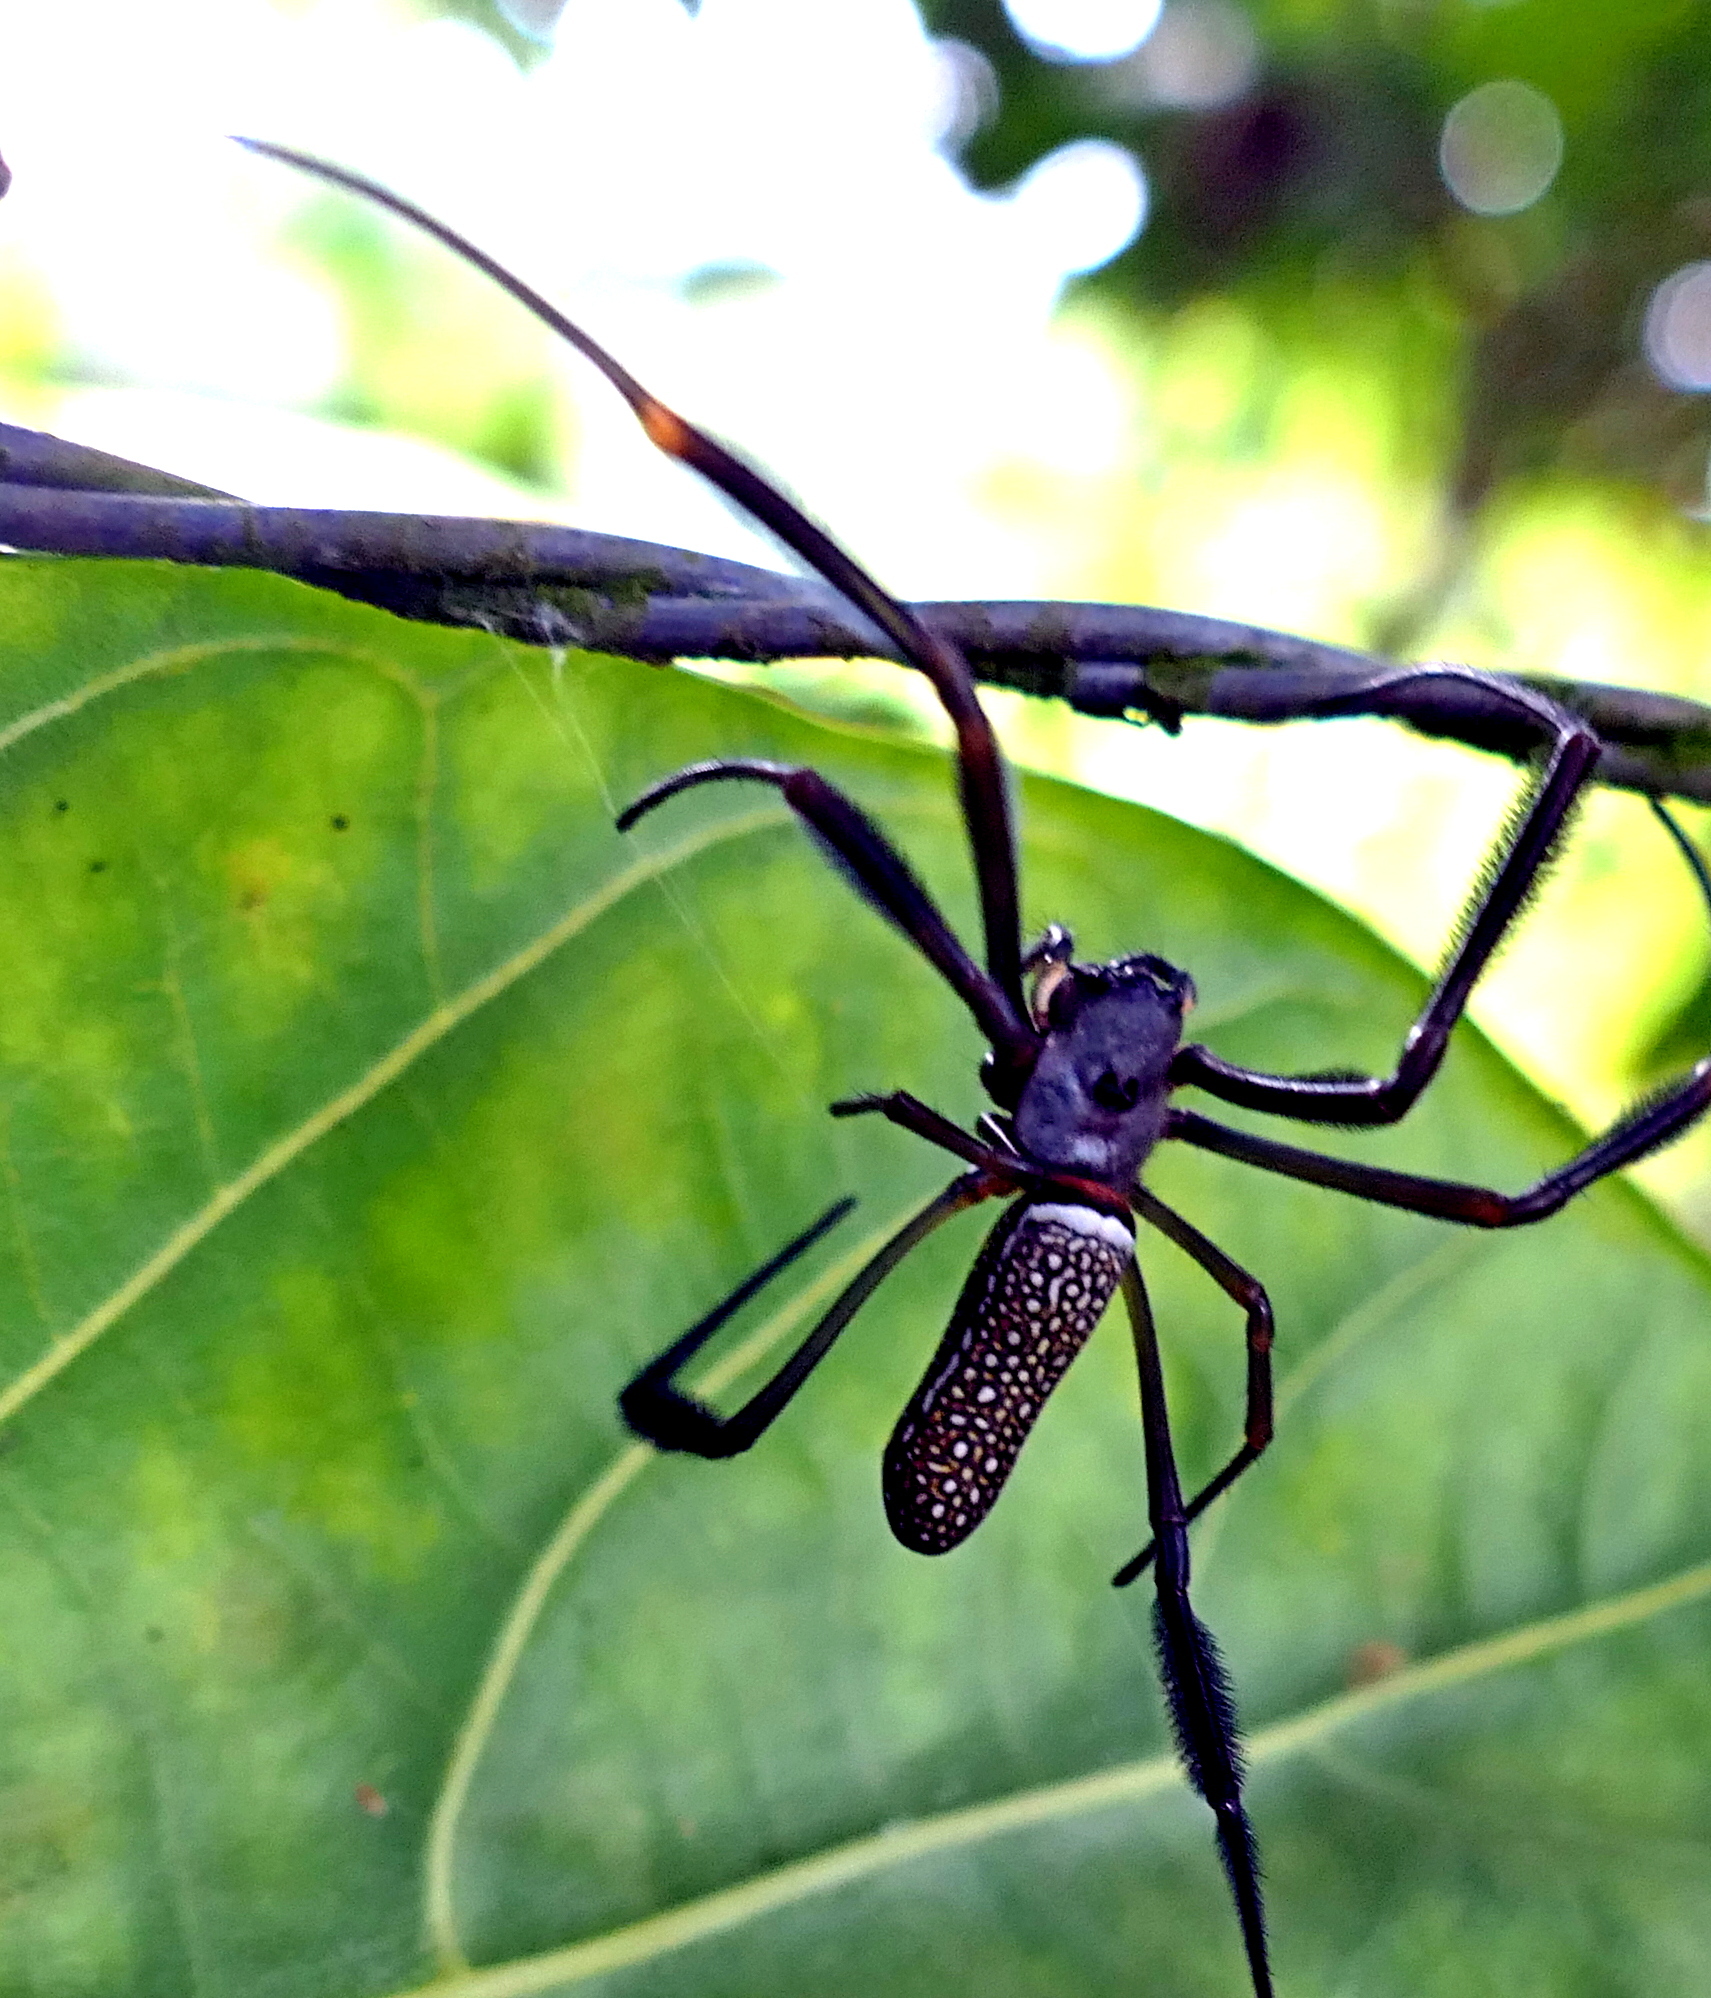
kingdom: Animalia
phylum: Arthropoda
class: Arachnida
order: Araneae
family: Araneidae
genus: Trichonephila
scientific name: Trichonephila clavipes
